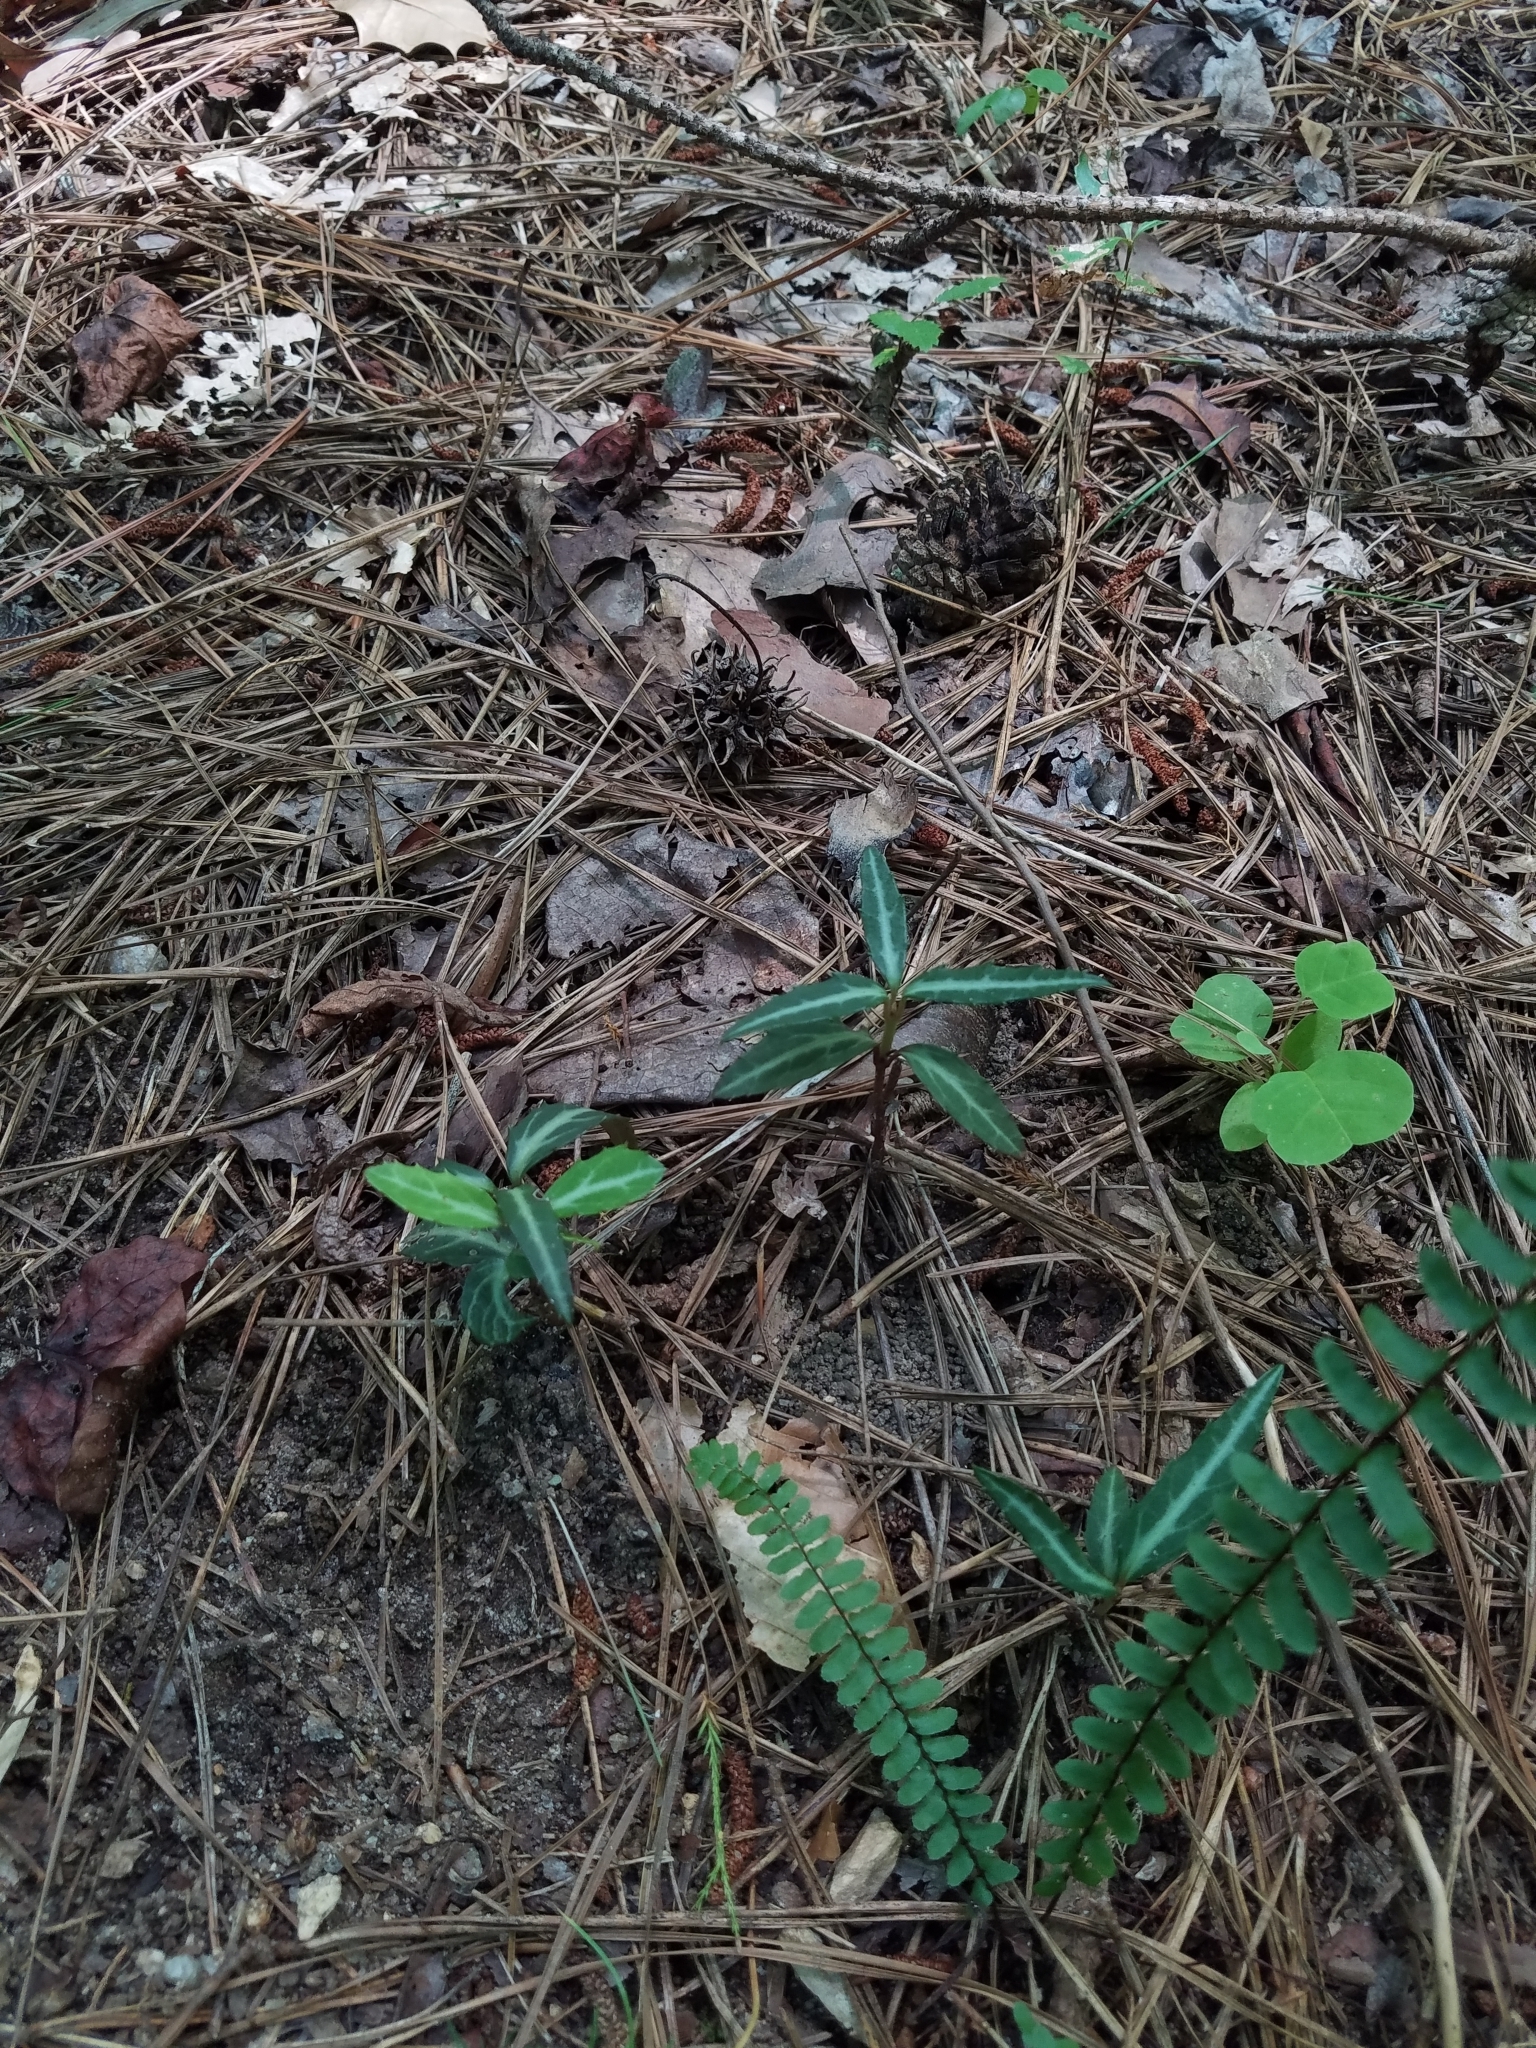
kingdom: Plantae
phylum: Tracheophyta
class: Magnoliopsida
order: Ericales
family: Ericaceae
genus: Chimaphila
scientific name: Chimaphila maculata
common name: Spotted pipsissewa
